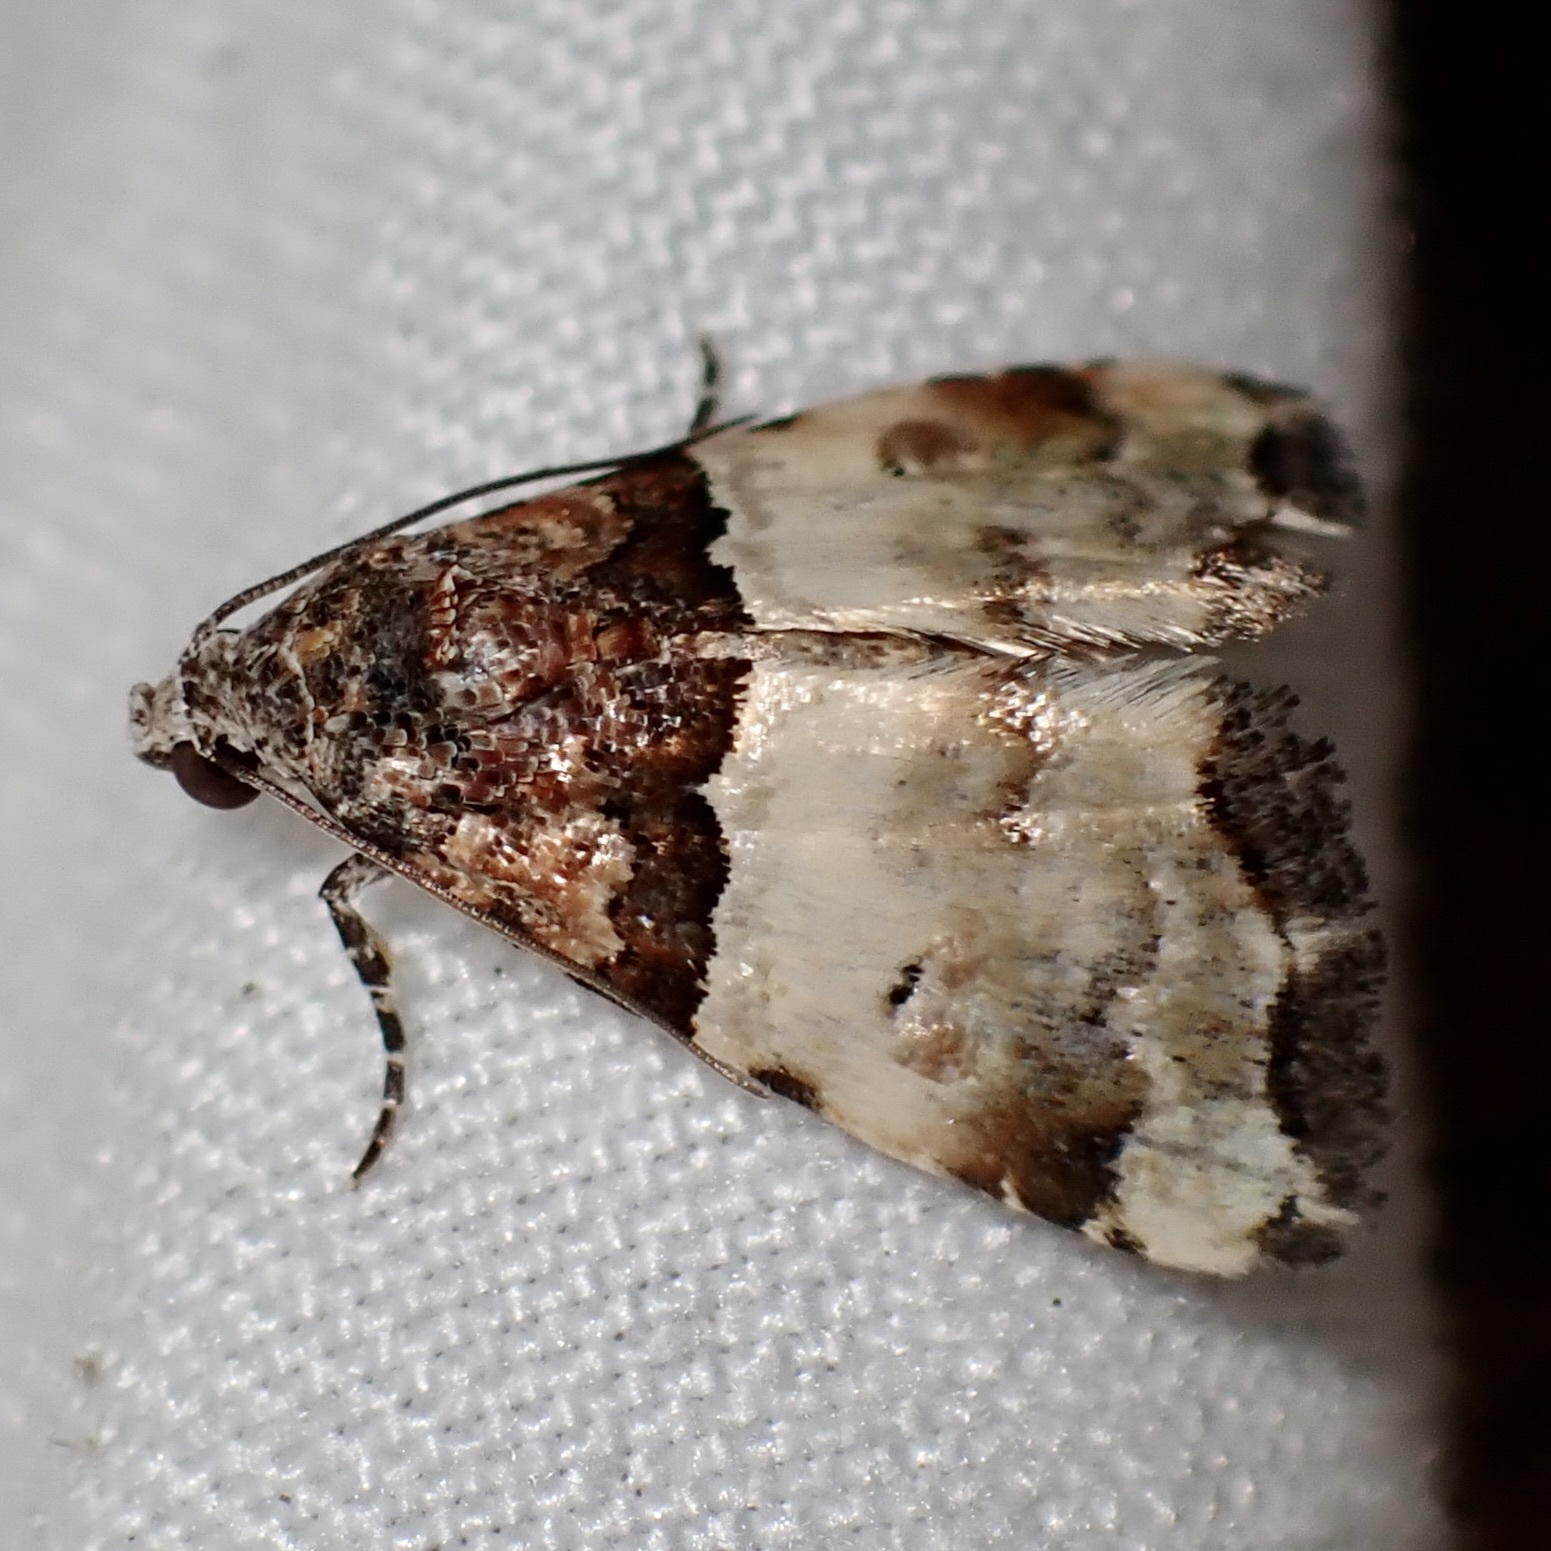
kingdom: Animalia
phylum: Arthropoda
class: Insecta
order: Lepidoptera
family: Noctuidae
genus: Cobubatha
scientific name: Cobubatha dividua
